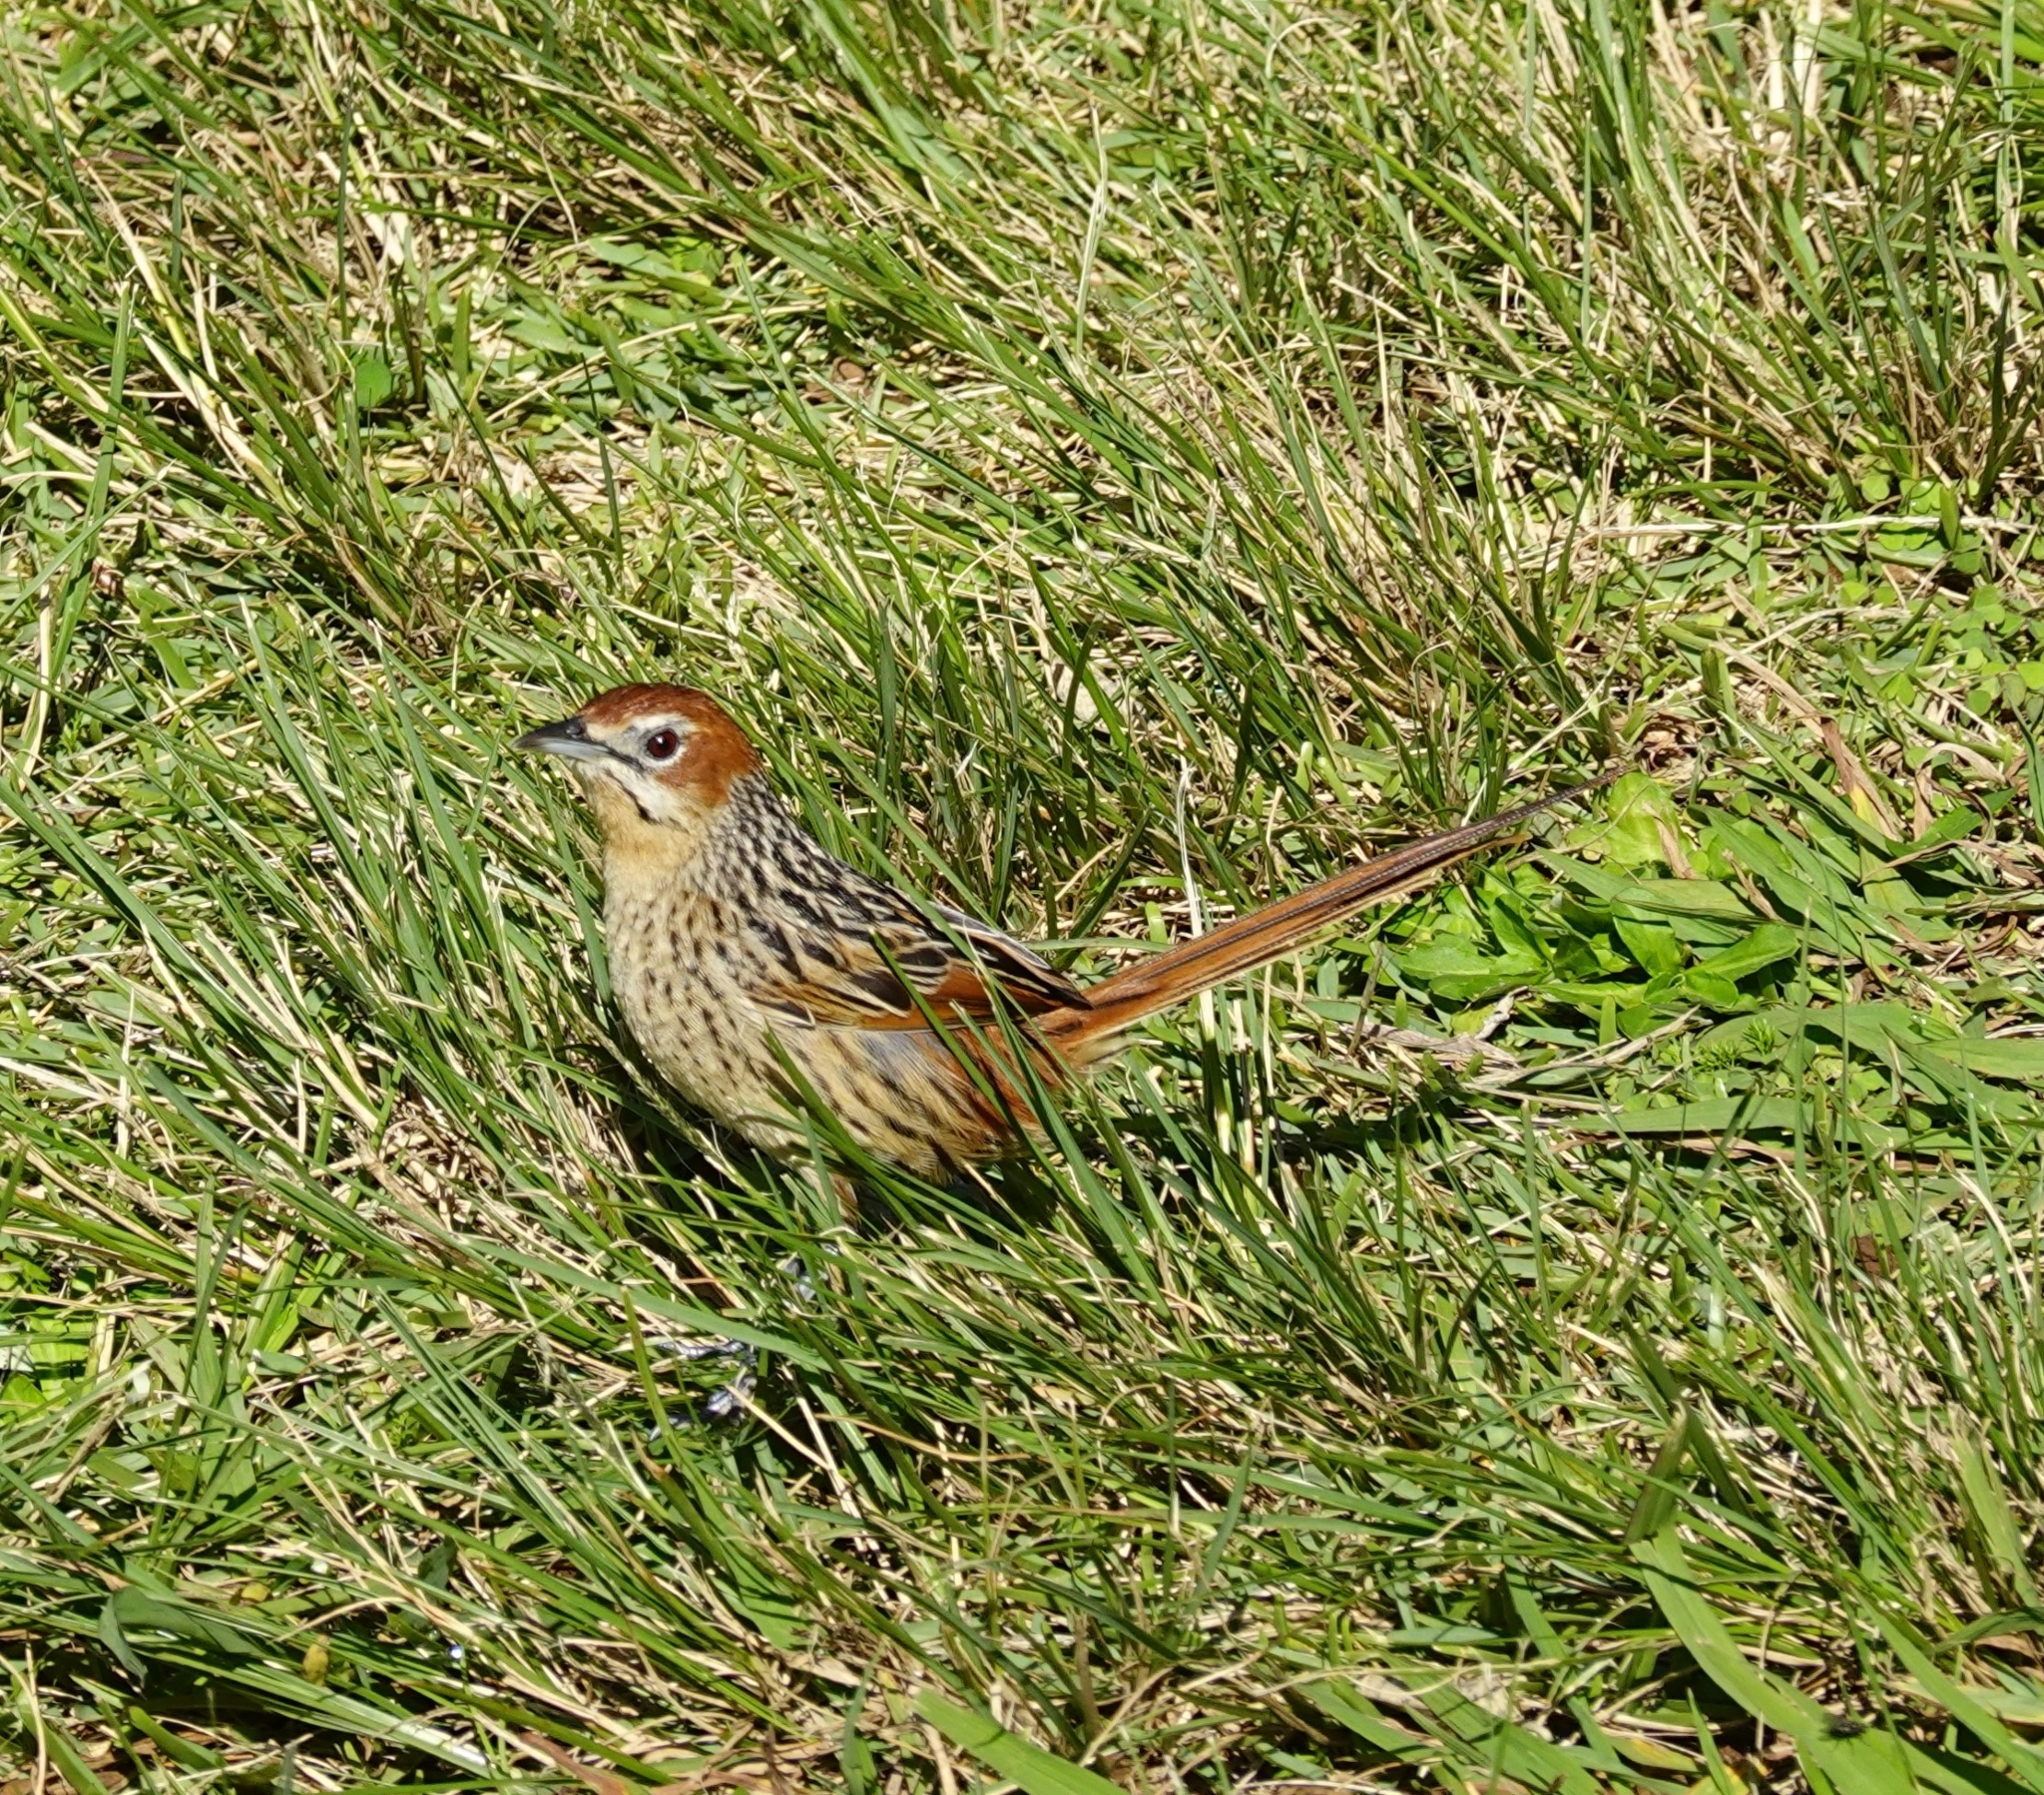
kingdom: Animalia
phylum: Chordata
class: Aves
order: Passeriformes
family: Macrosphenidae
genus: Sphenoeacus
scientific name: Sphenoeacus afer
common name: Cape grassbird
